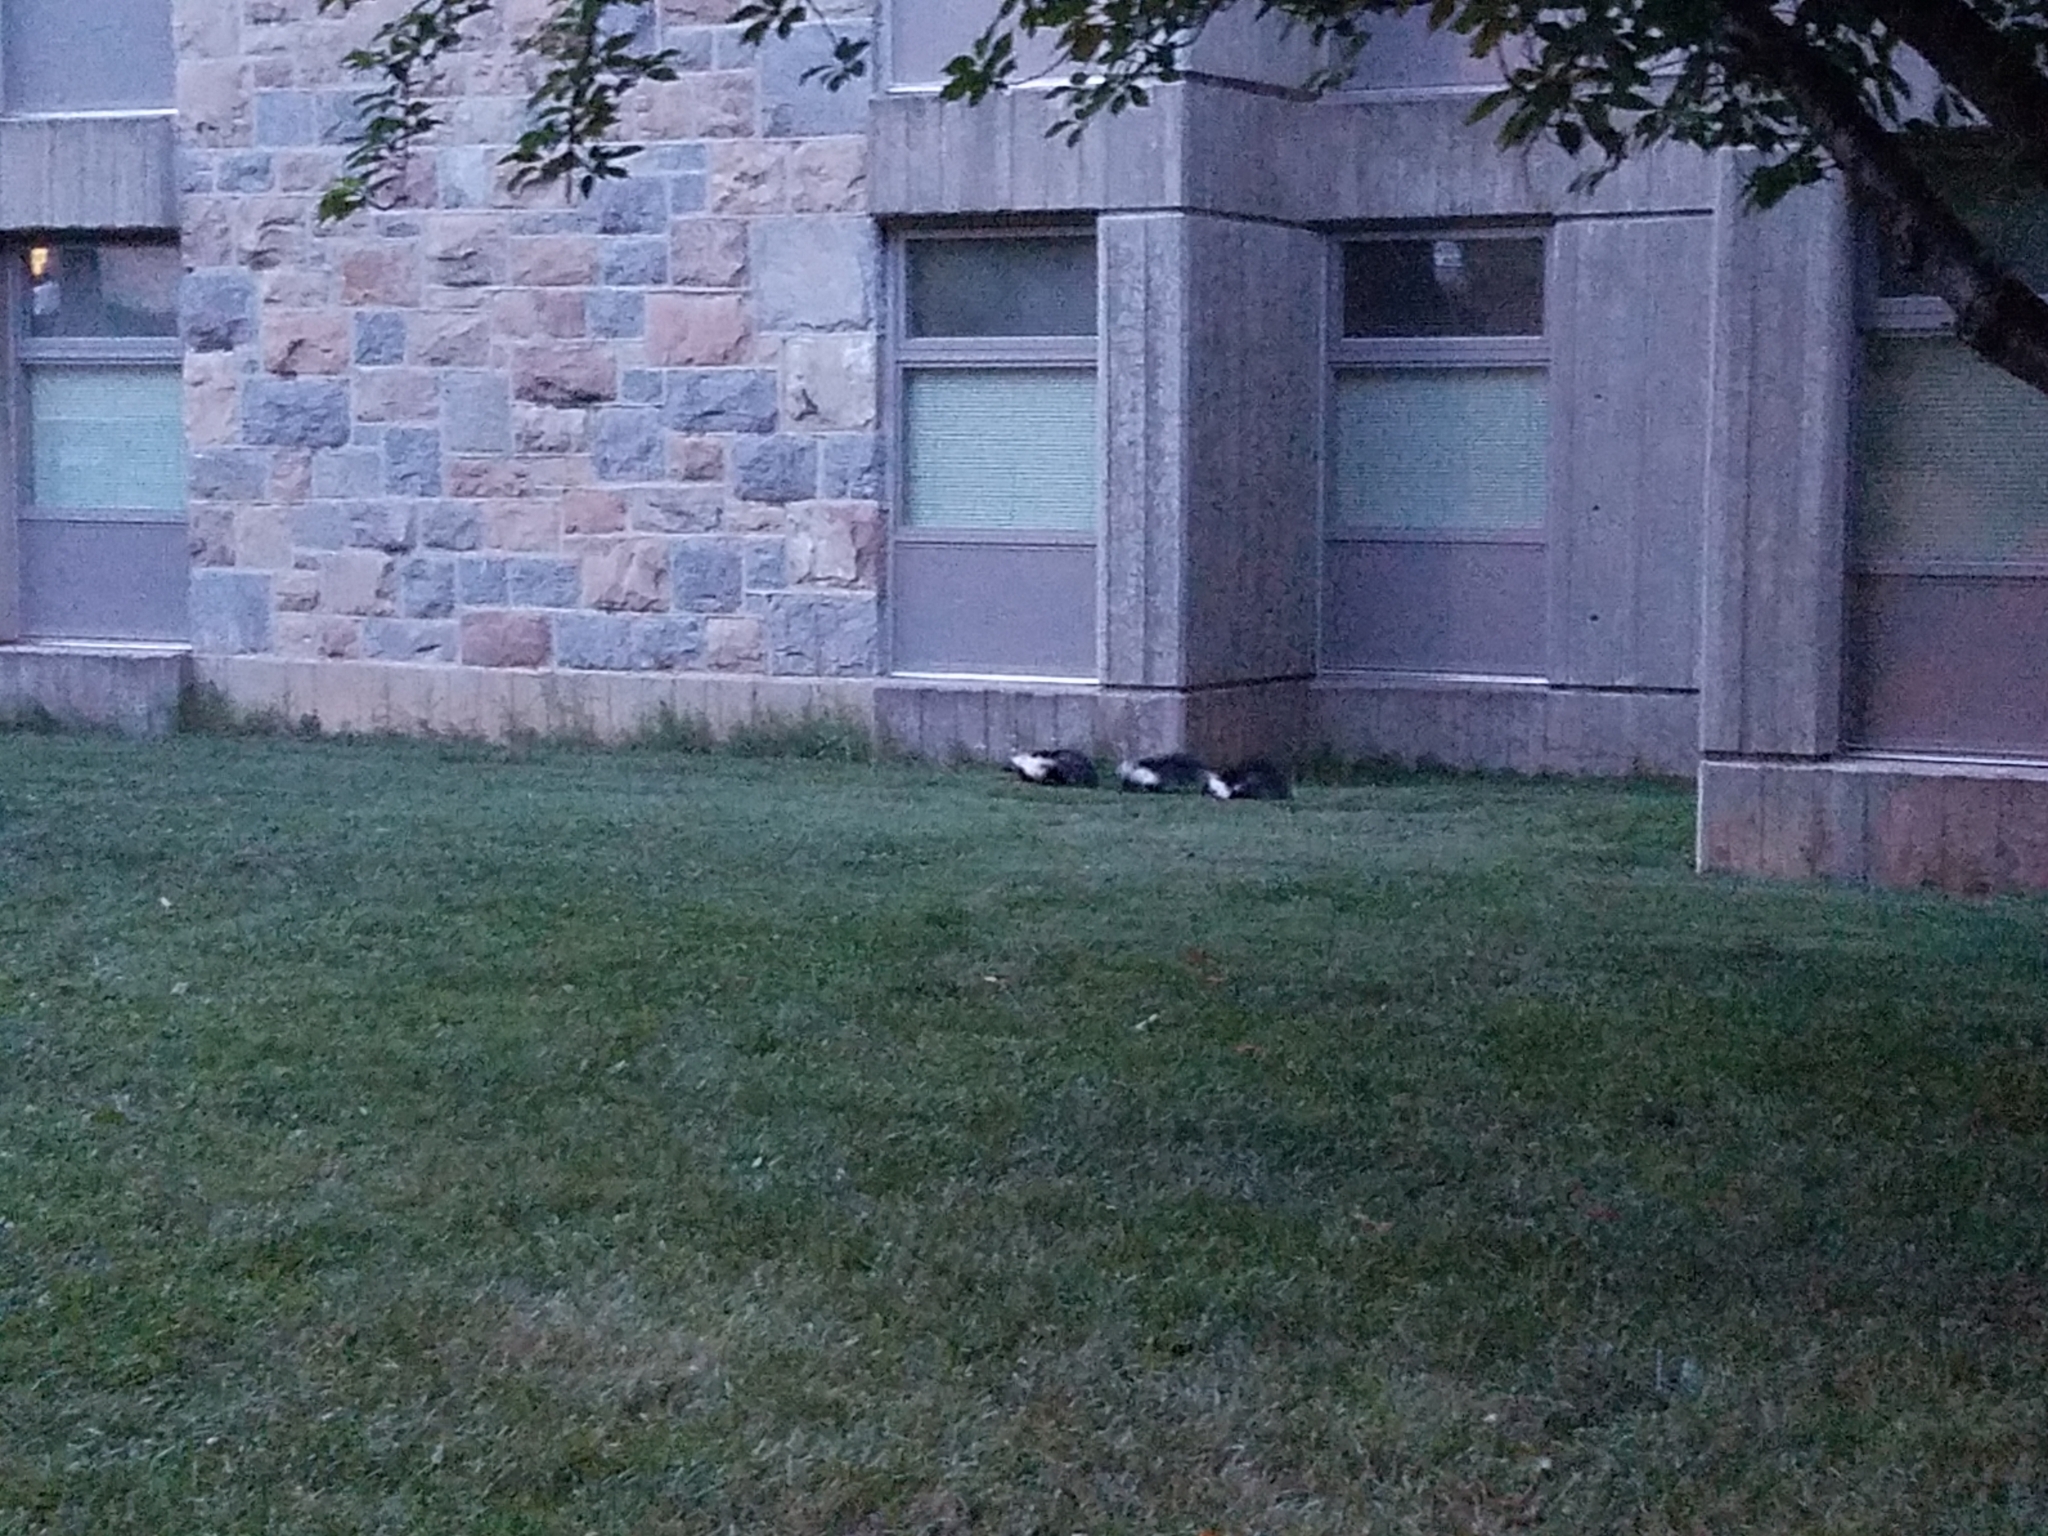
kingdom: Animalia
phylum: Chordata
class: Mammalia
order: Carnivora
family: Mephitidae
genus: Mephitis
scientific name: Mephitis mephitis
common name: Striped skunk
